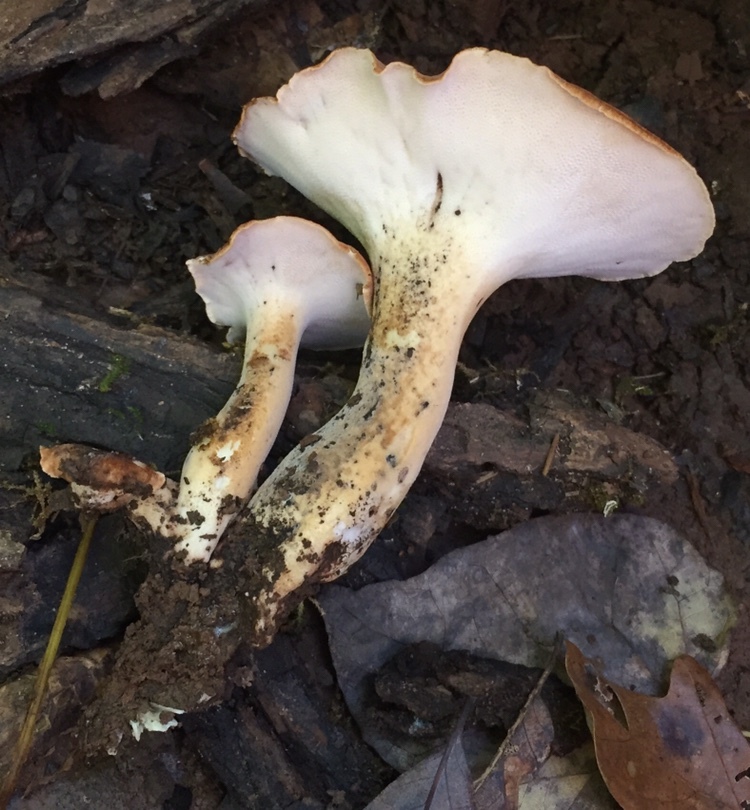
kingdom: Fungi
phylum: Basidiomycota
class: Agaricomycetes
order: Polyporales
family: Polyporaceae
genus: Polyporus
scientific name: Polyporus radicatus
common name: Rooting polypore
